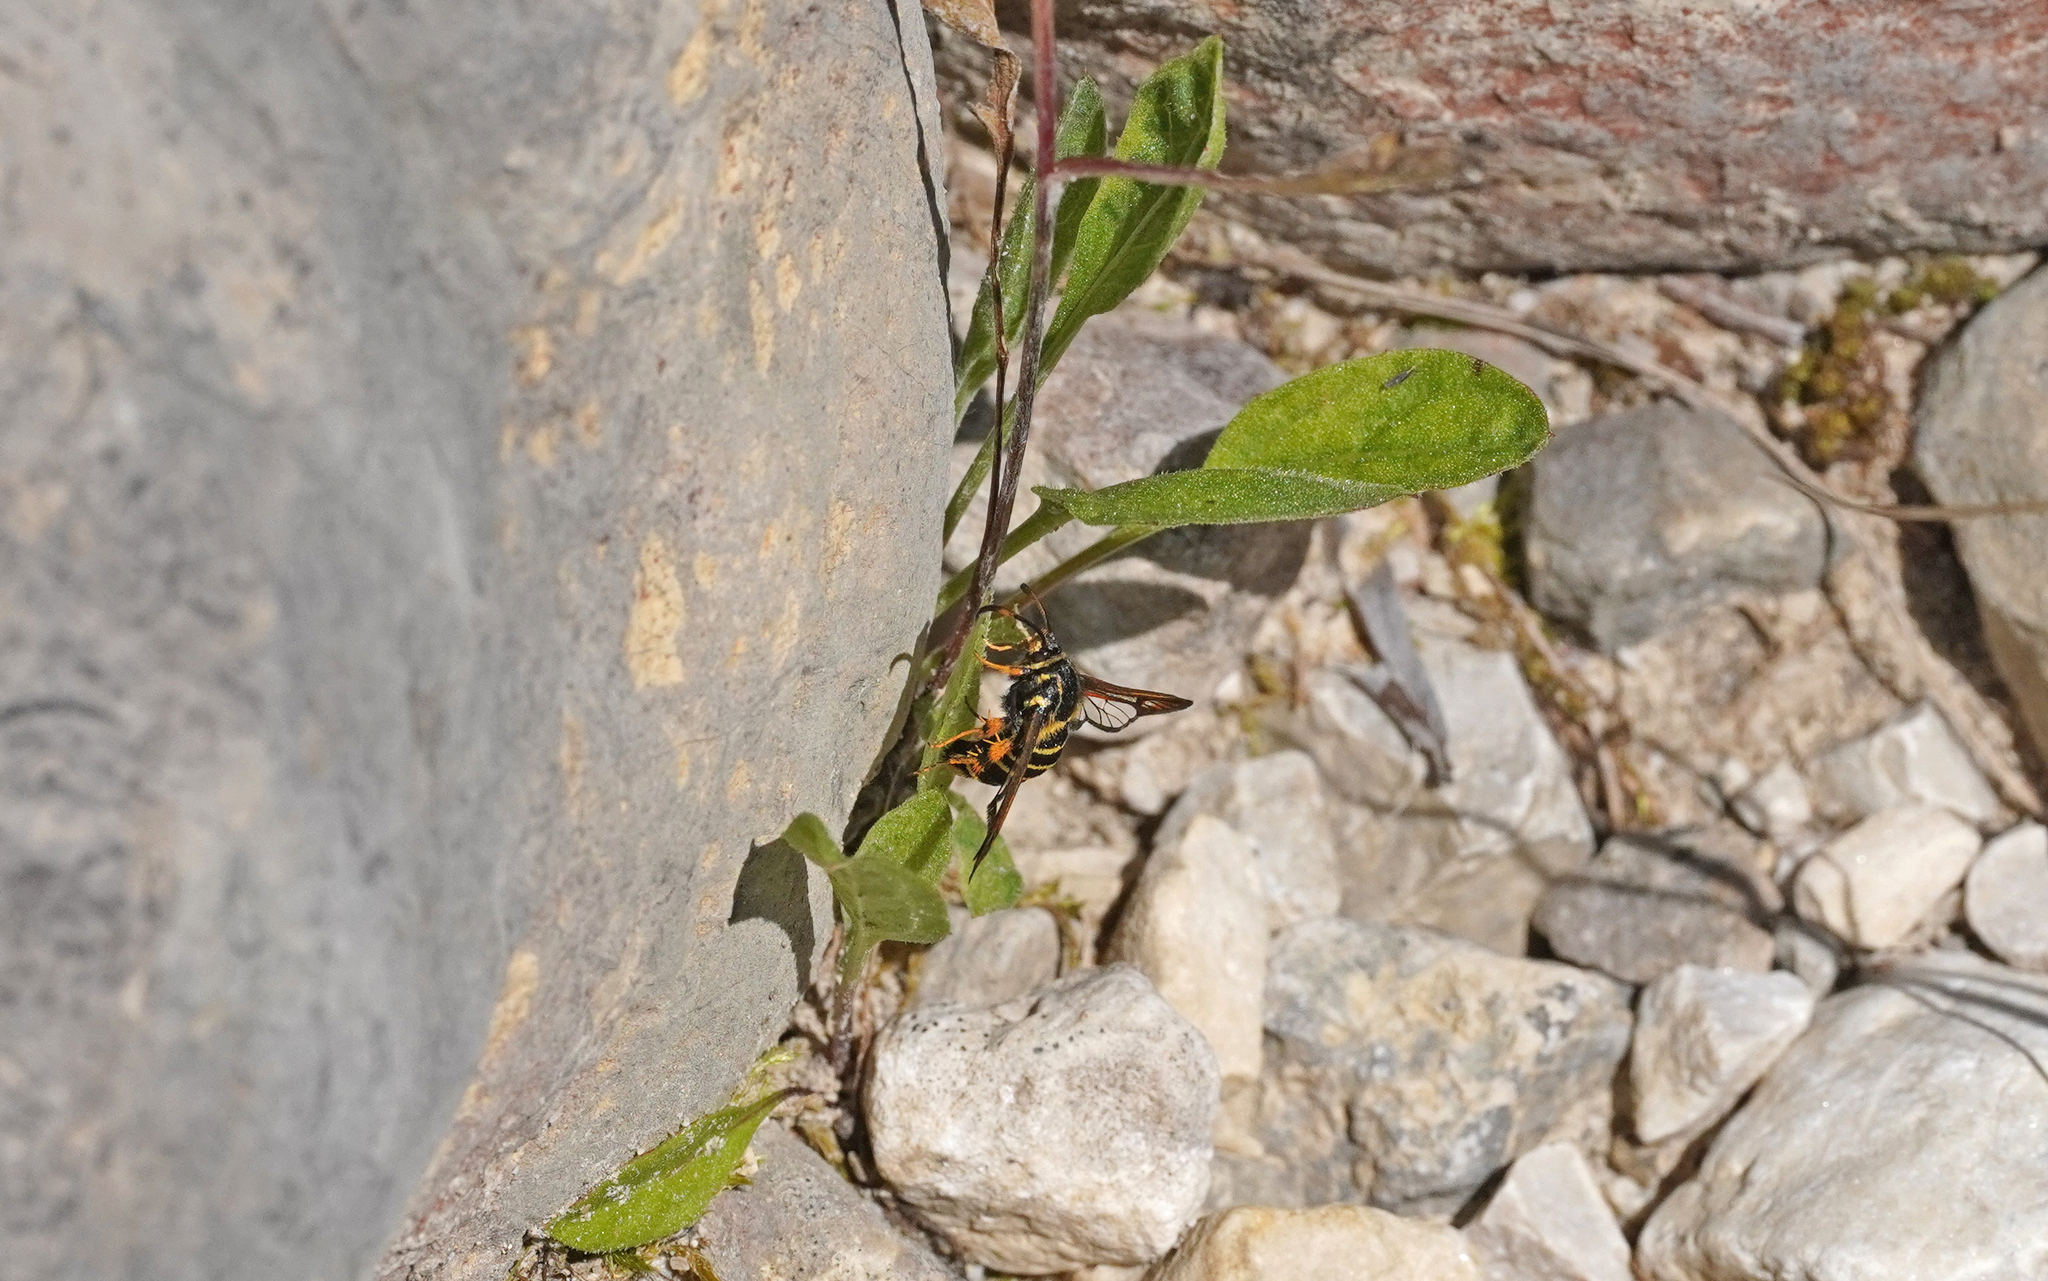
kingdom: Animalia
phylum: Arthropoda
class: Insecta
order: Lepidoptera
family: Sesiidae
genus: Bembecia
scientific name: Bembecia ichneumoniformis
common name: Six-belted clearwing
